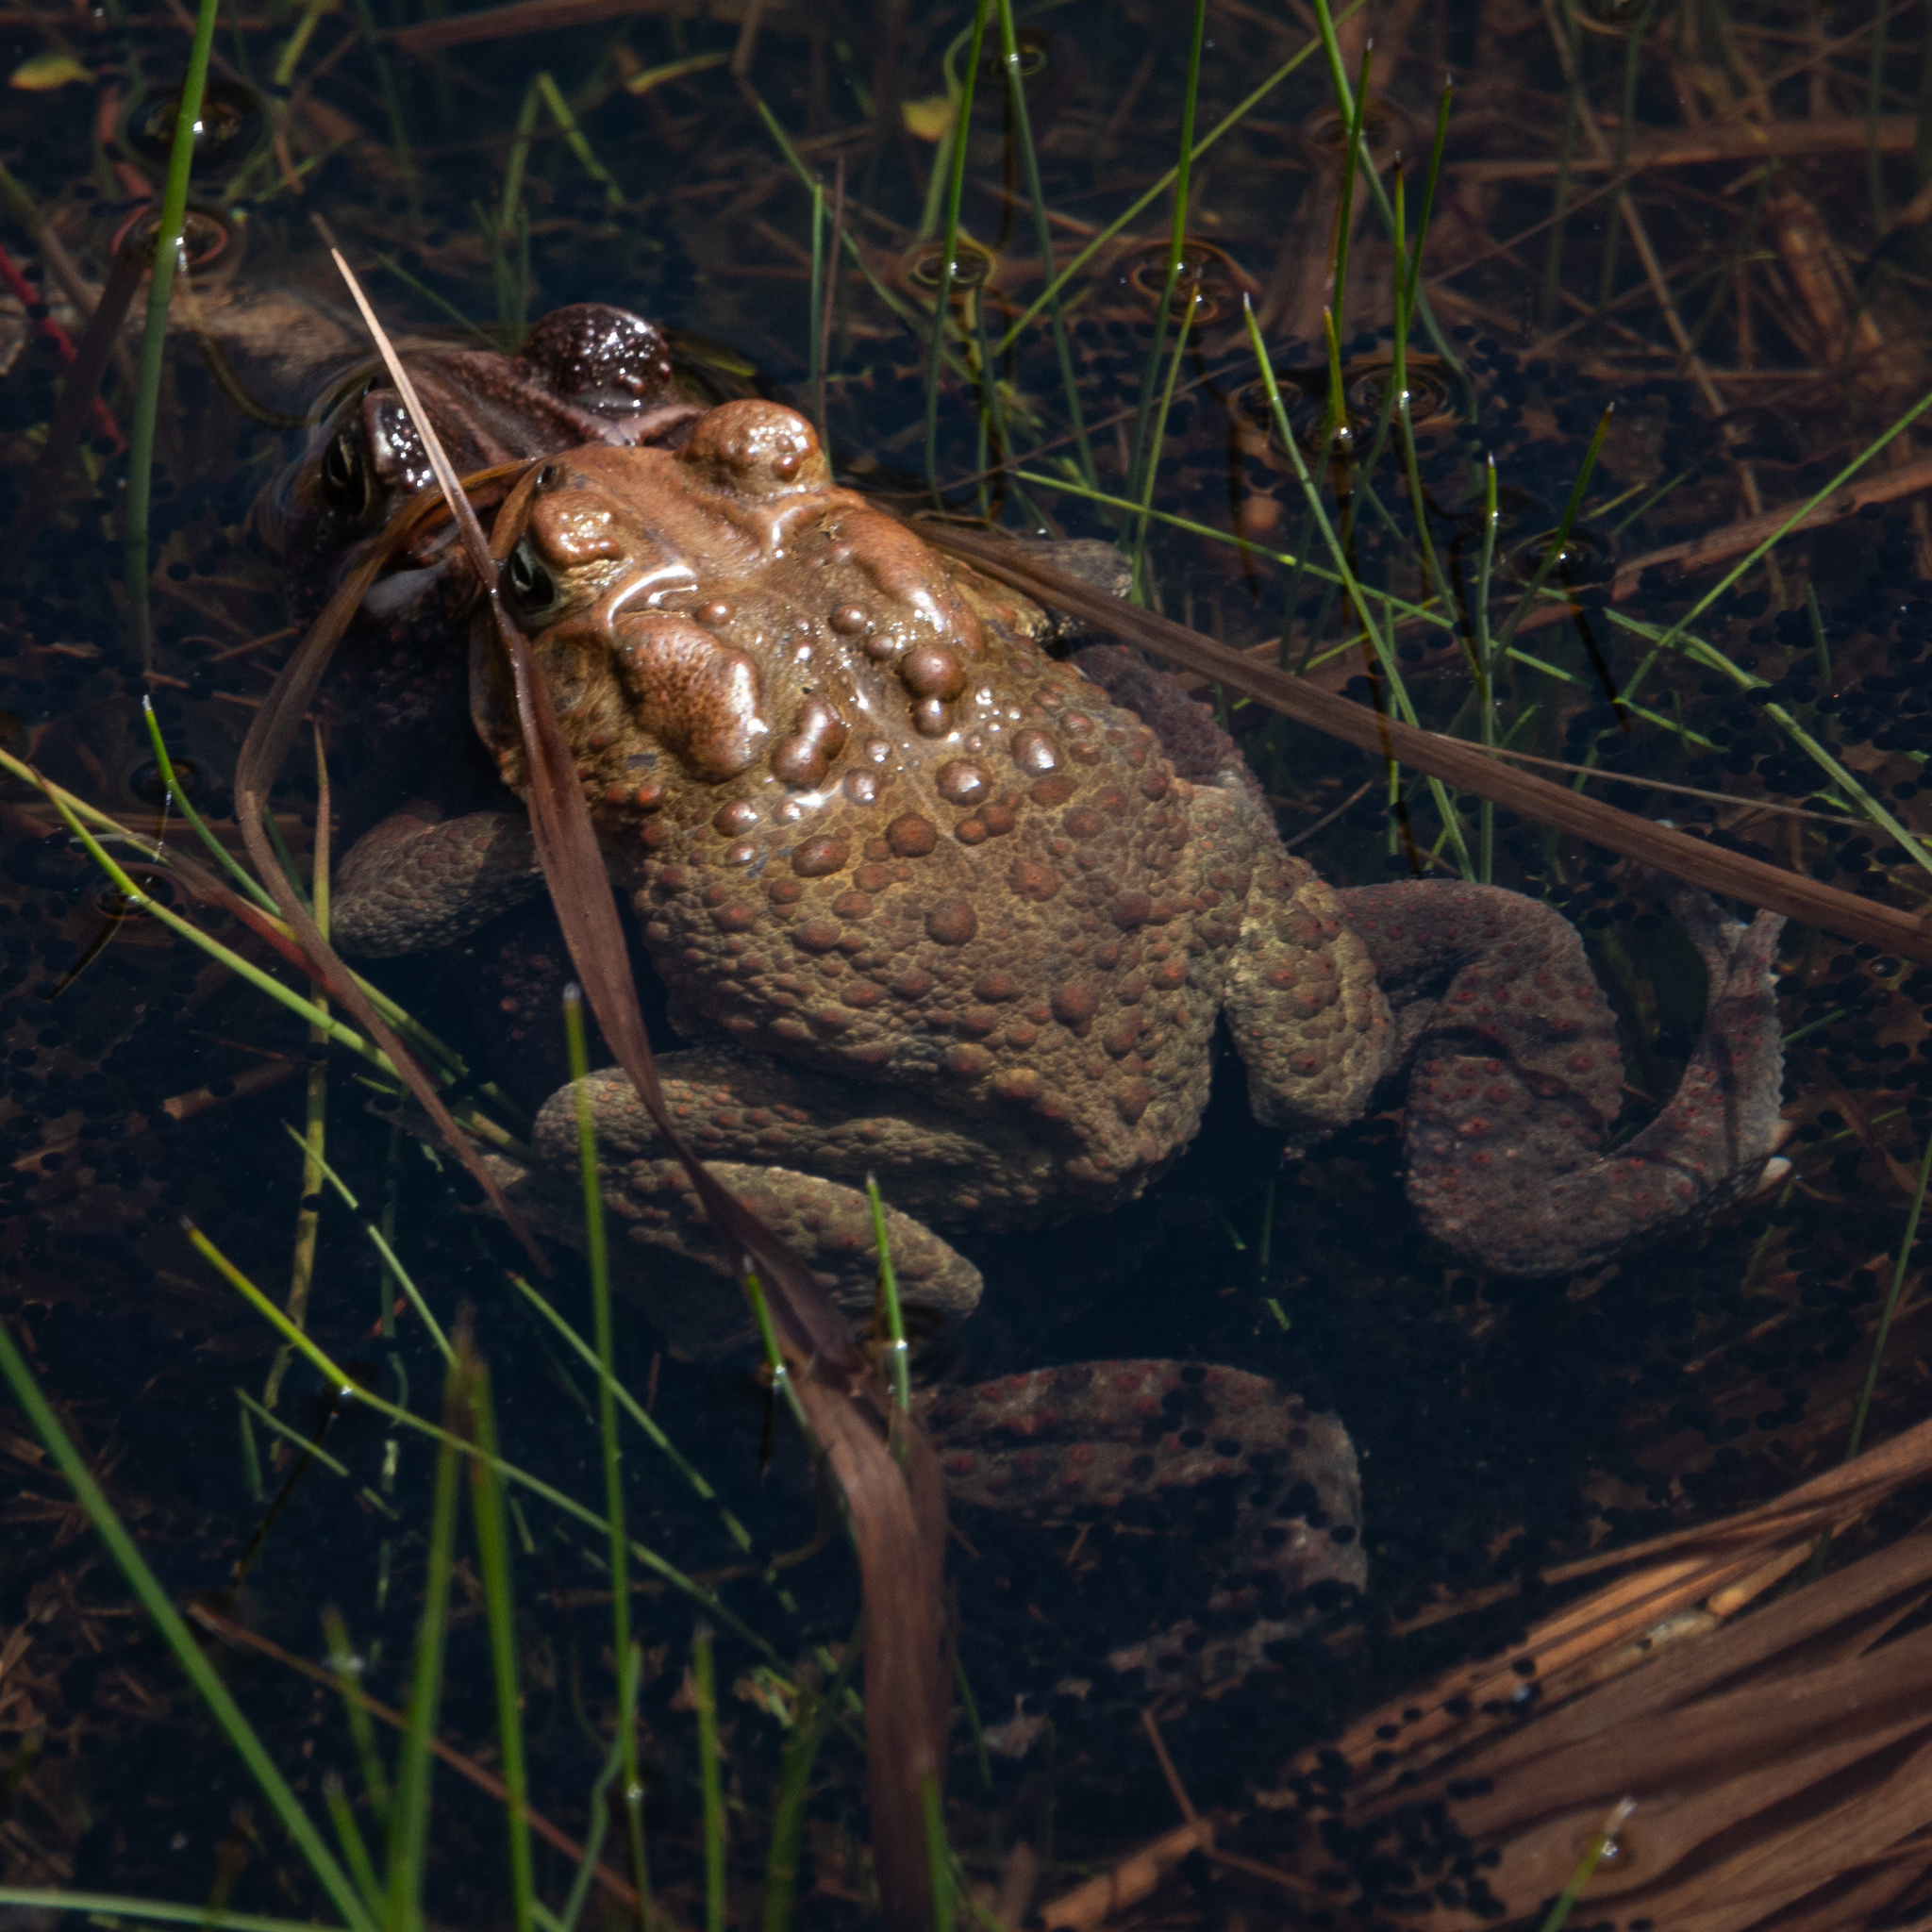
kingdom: Animalia
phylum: Chordata
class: Amphibia
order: Anura
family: Bufonidae
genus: Anaxyrus
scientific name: Anaxyrus americanus
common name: American toad
